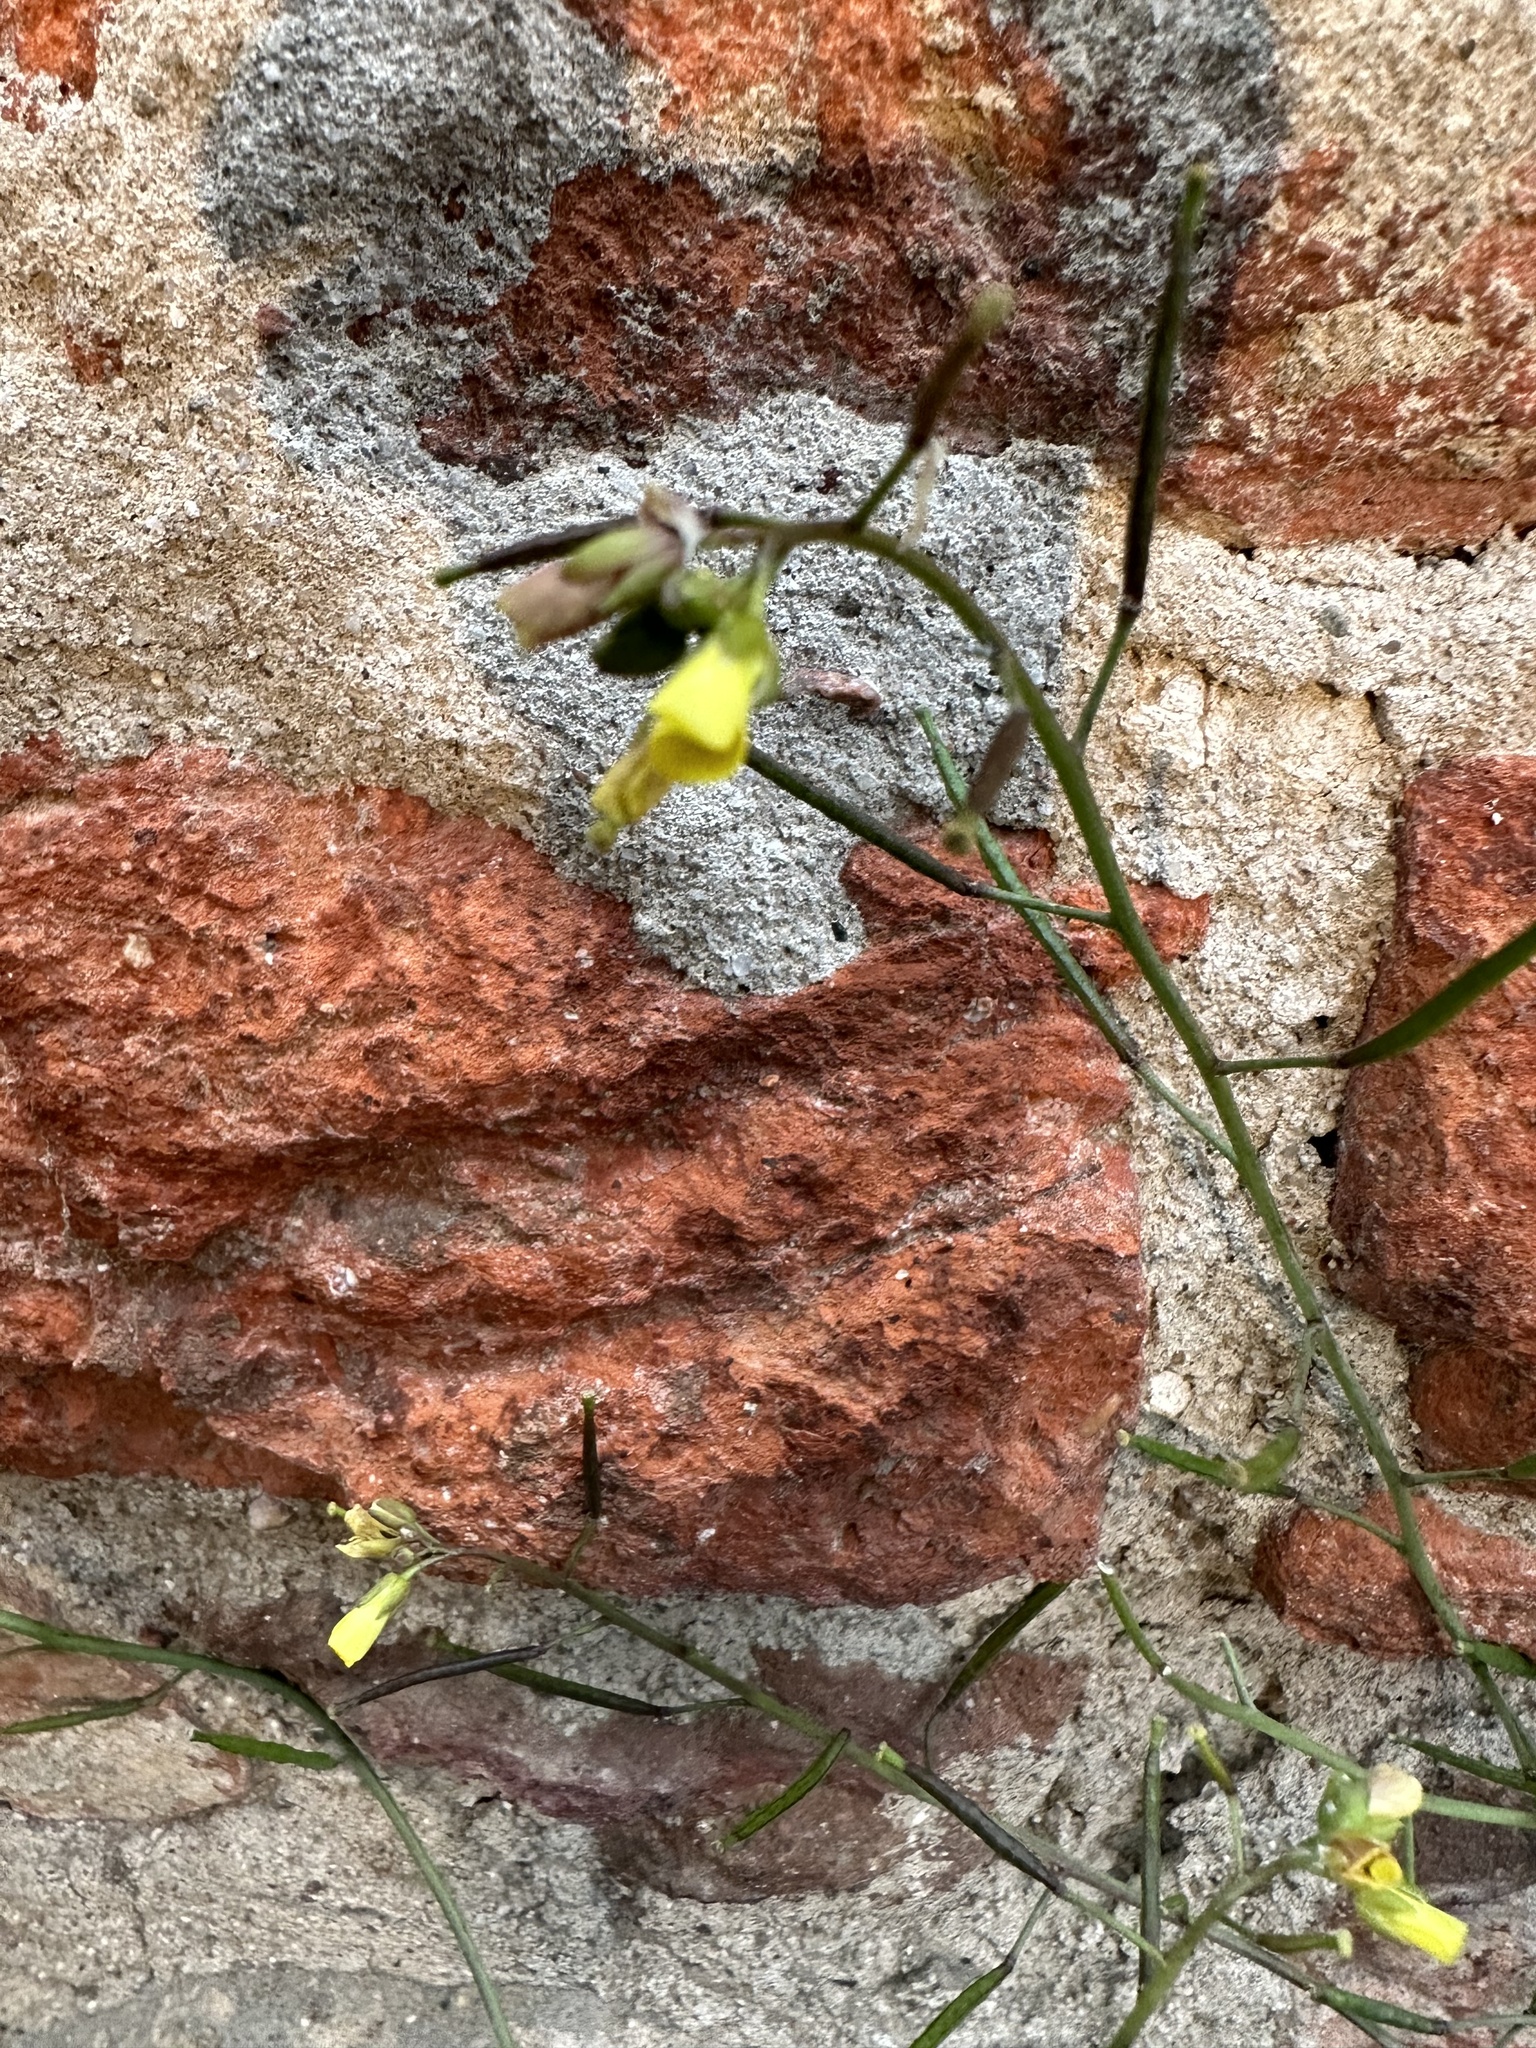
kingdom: Plantae
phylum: Tracheophyta
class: Magnoliopsida
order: Brassicales
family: Brassicaceae
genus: Diplotaxis
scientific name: Diplotaxis muralis
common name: Annual wall-rocket
